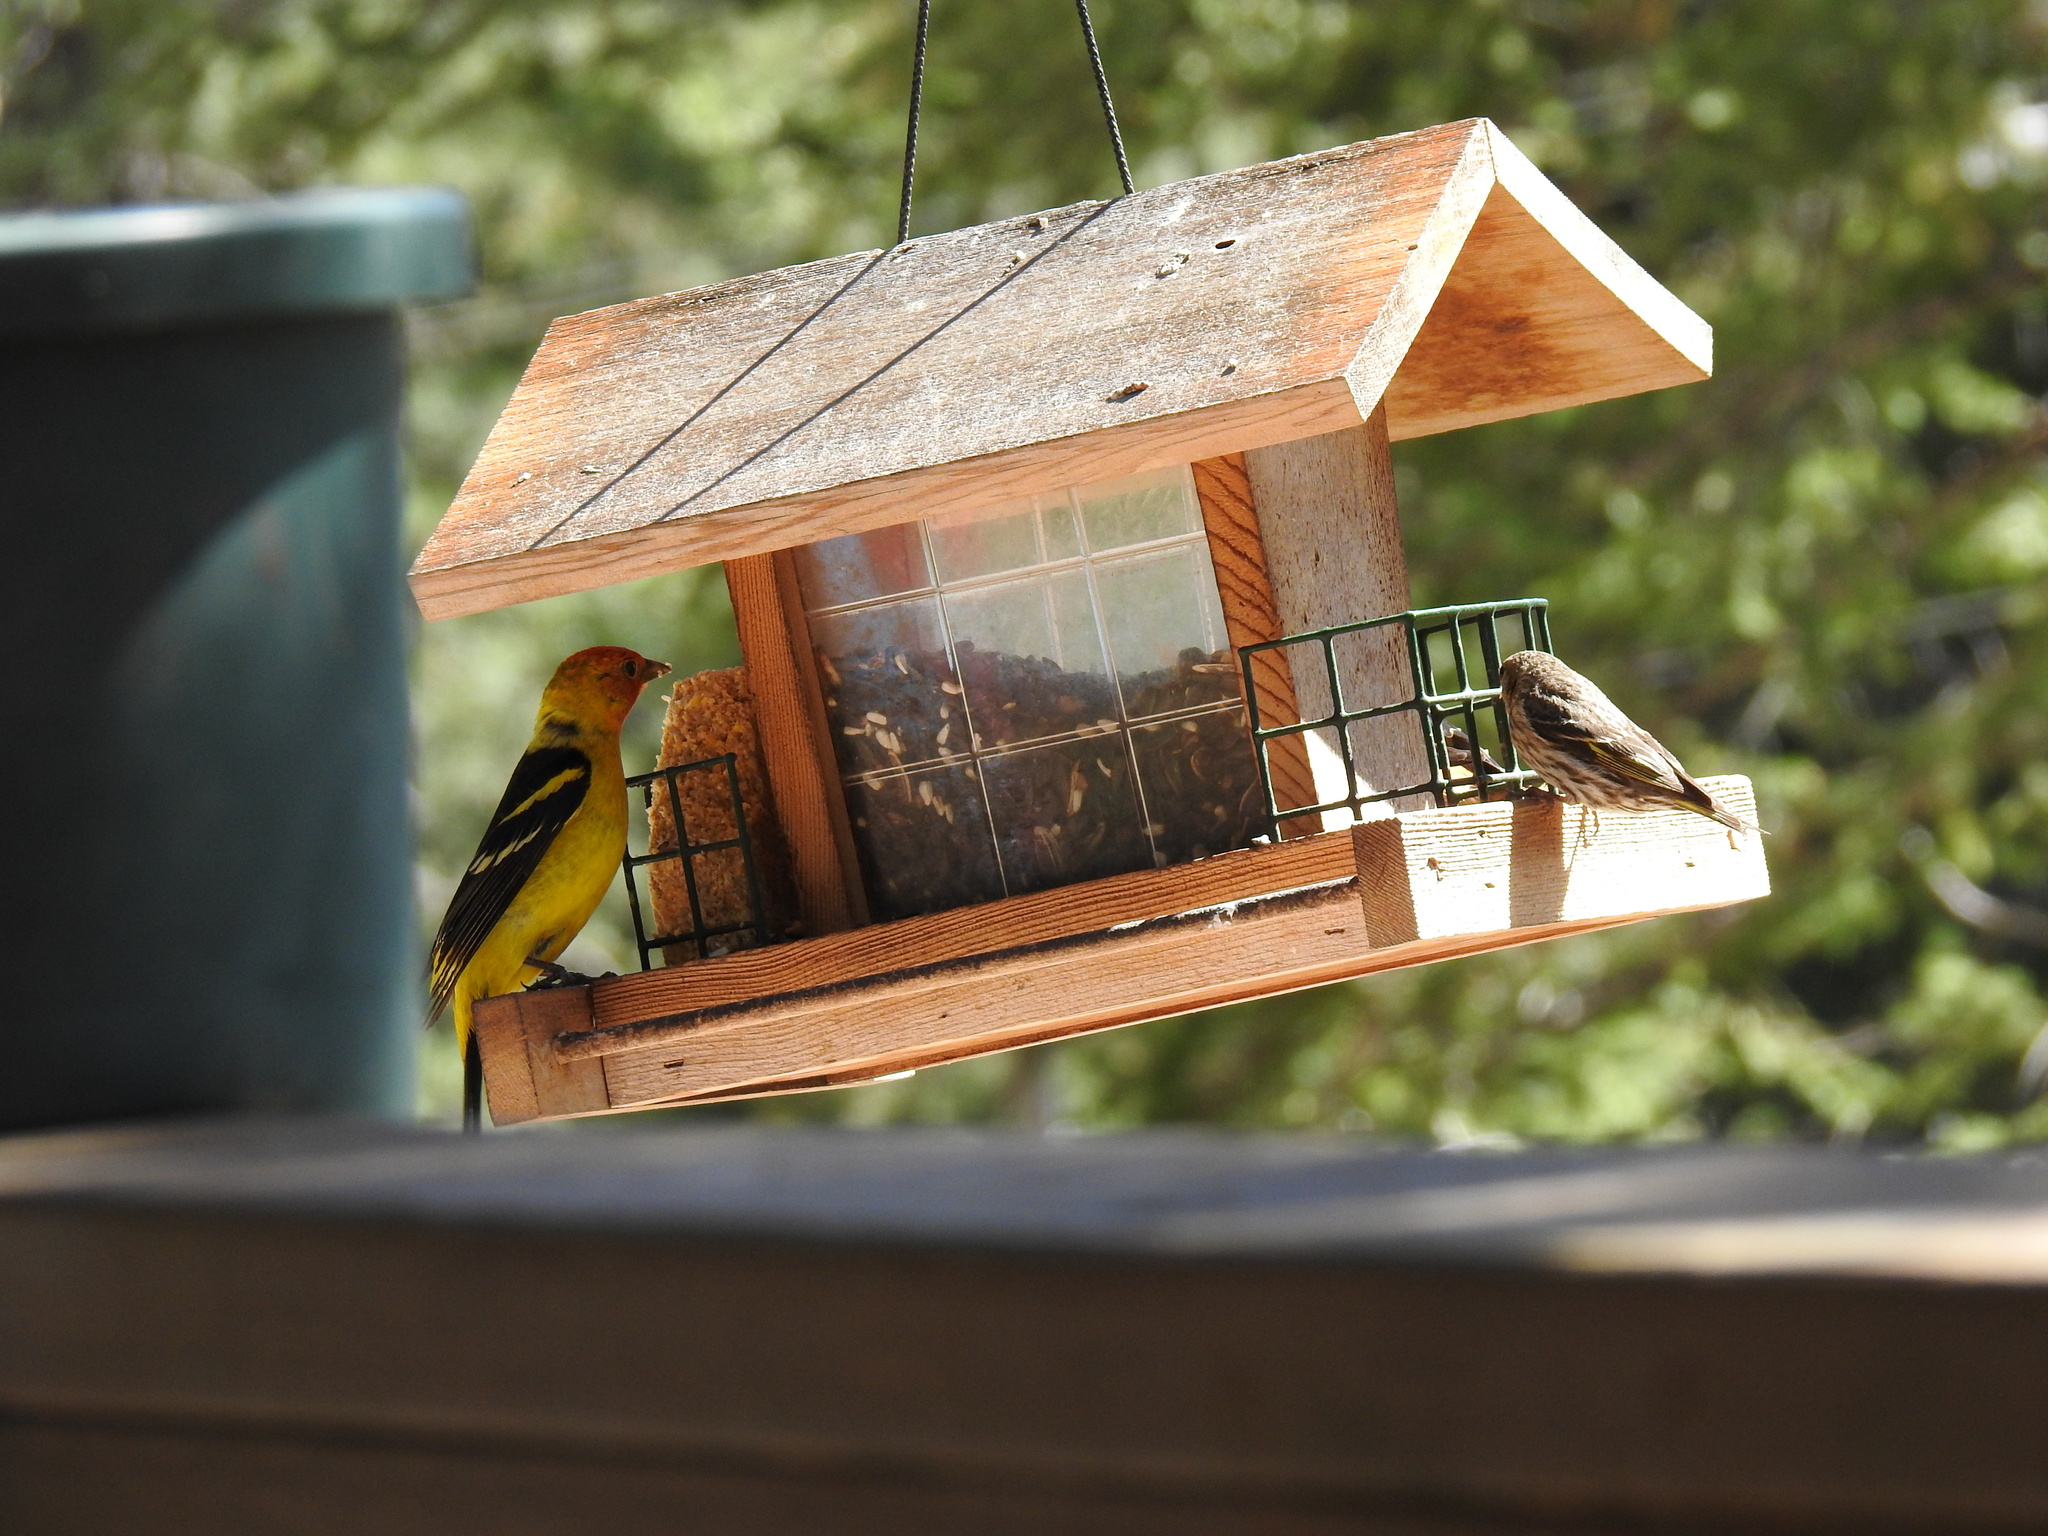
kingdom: Animalia
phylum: Chordata
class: Aves
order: Passeriformes
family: Cardinalidae
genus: Piranga
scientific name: Piranga ludoviciana
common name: Western tanager
